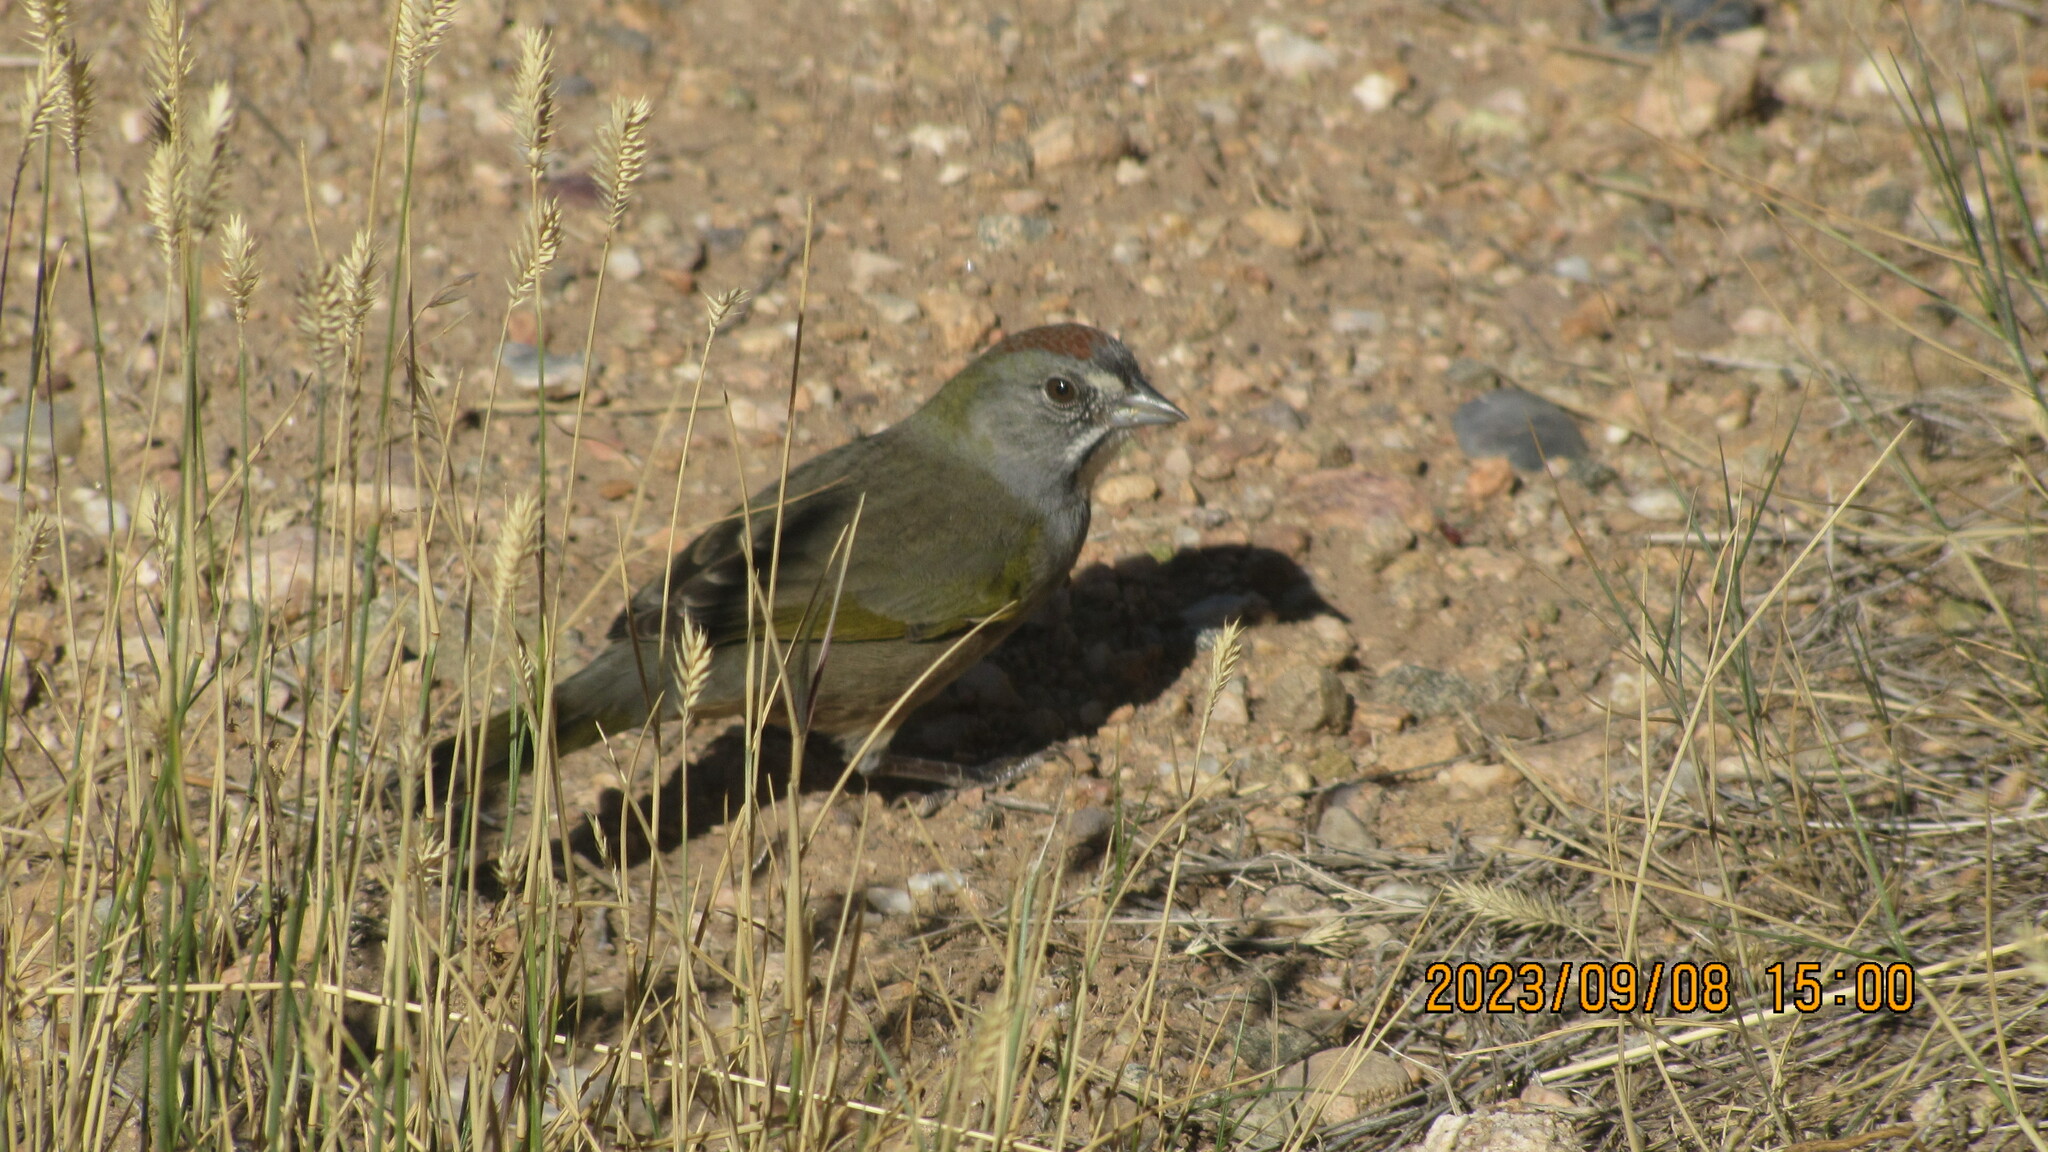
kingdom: Animalia
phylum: Chordata
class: Aves
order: Passeriformes
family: Passerellidae
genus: Pipilo
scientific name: Pipilo chlorurus
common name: Green-tailed towhee
